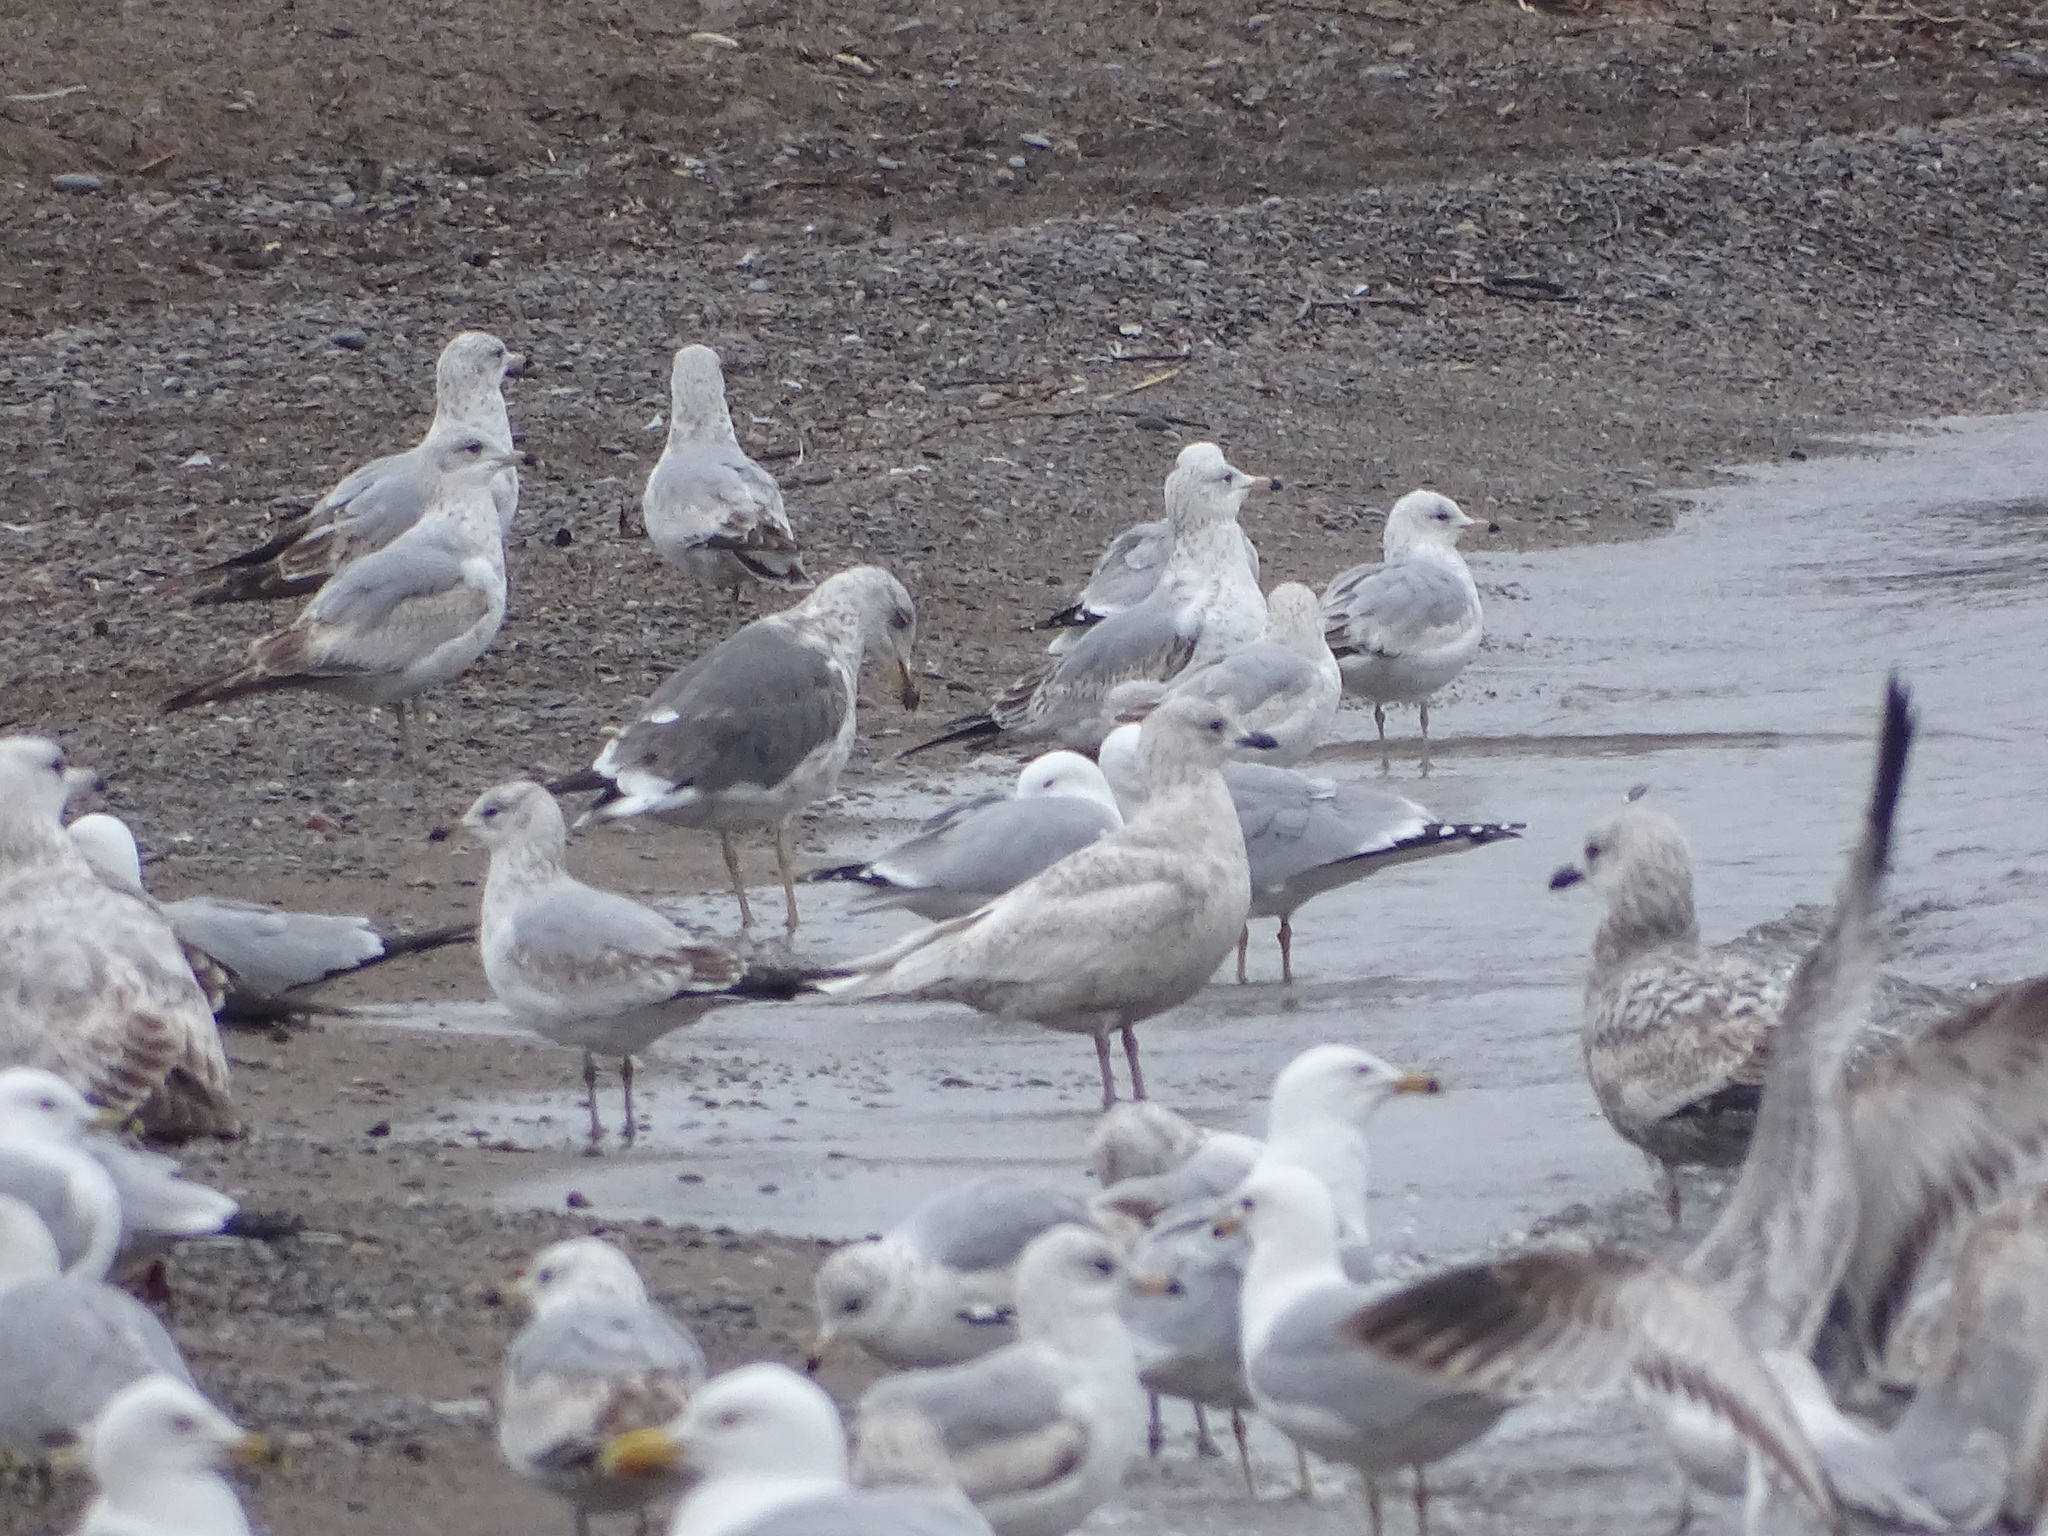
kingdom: Animalia
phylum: Chordata
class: Aves
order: Charadriiformes
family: Laridae
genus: Larus
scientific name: Larus glaucoides
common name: Iceland gull
